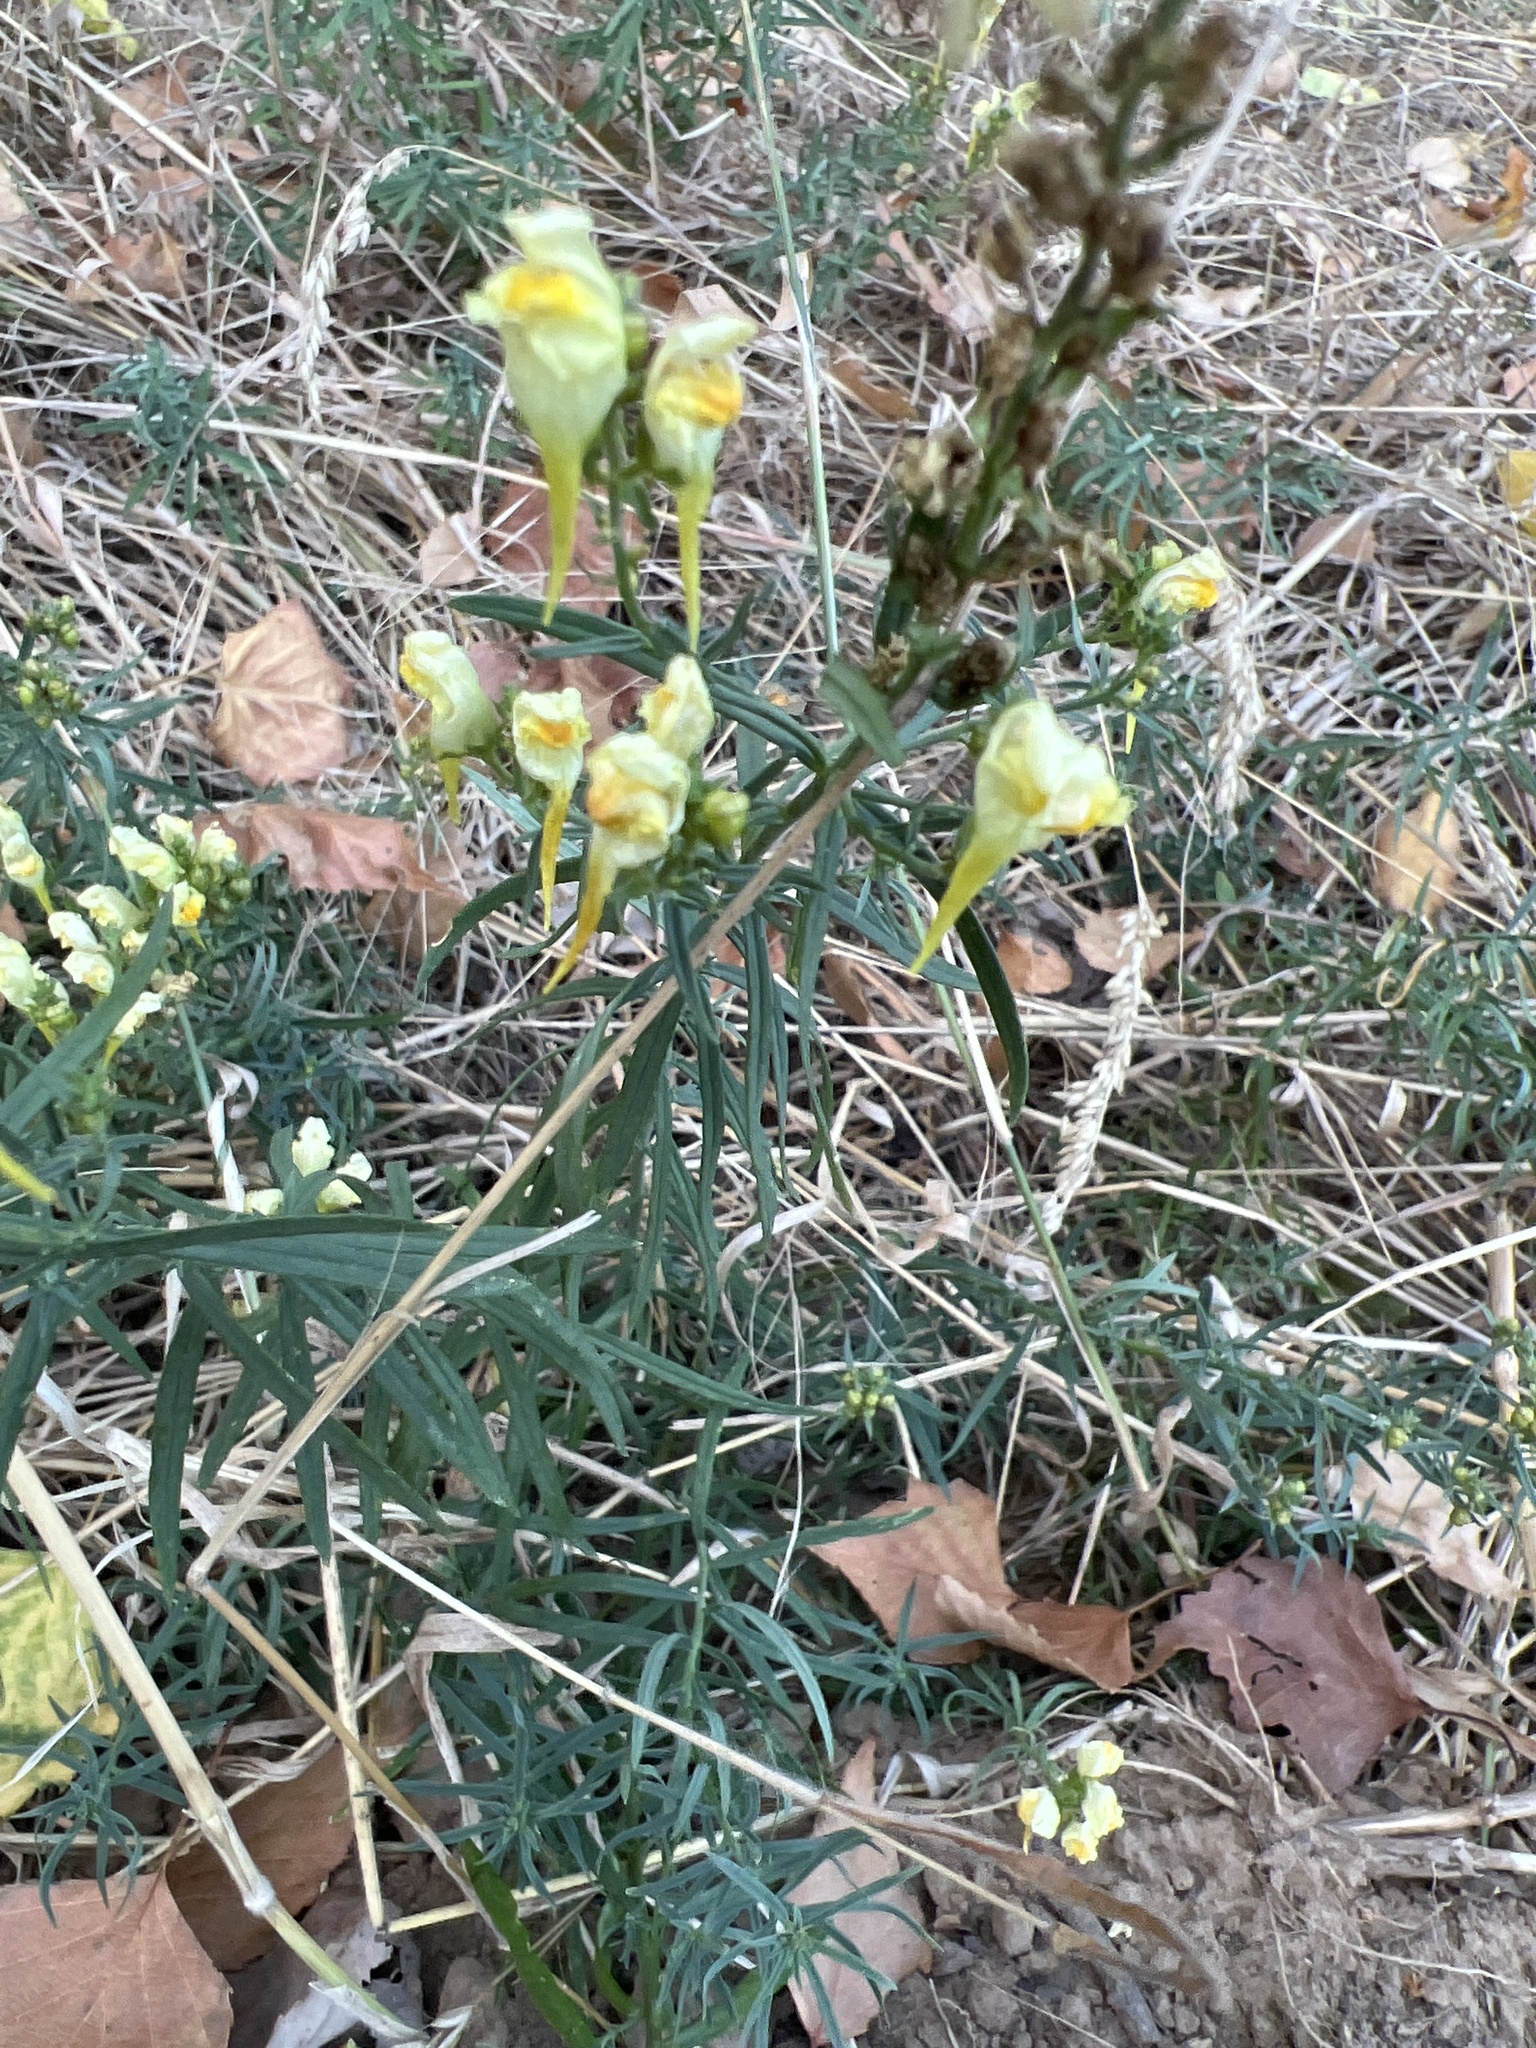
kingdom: Plantae
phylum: Tracheophyta
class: Magnoliopsida
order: Lamiales
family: Plantaginaceae
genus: Linaria
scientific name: Linaria vulgaris
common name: Butter and eggs
